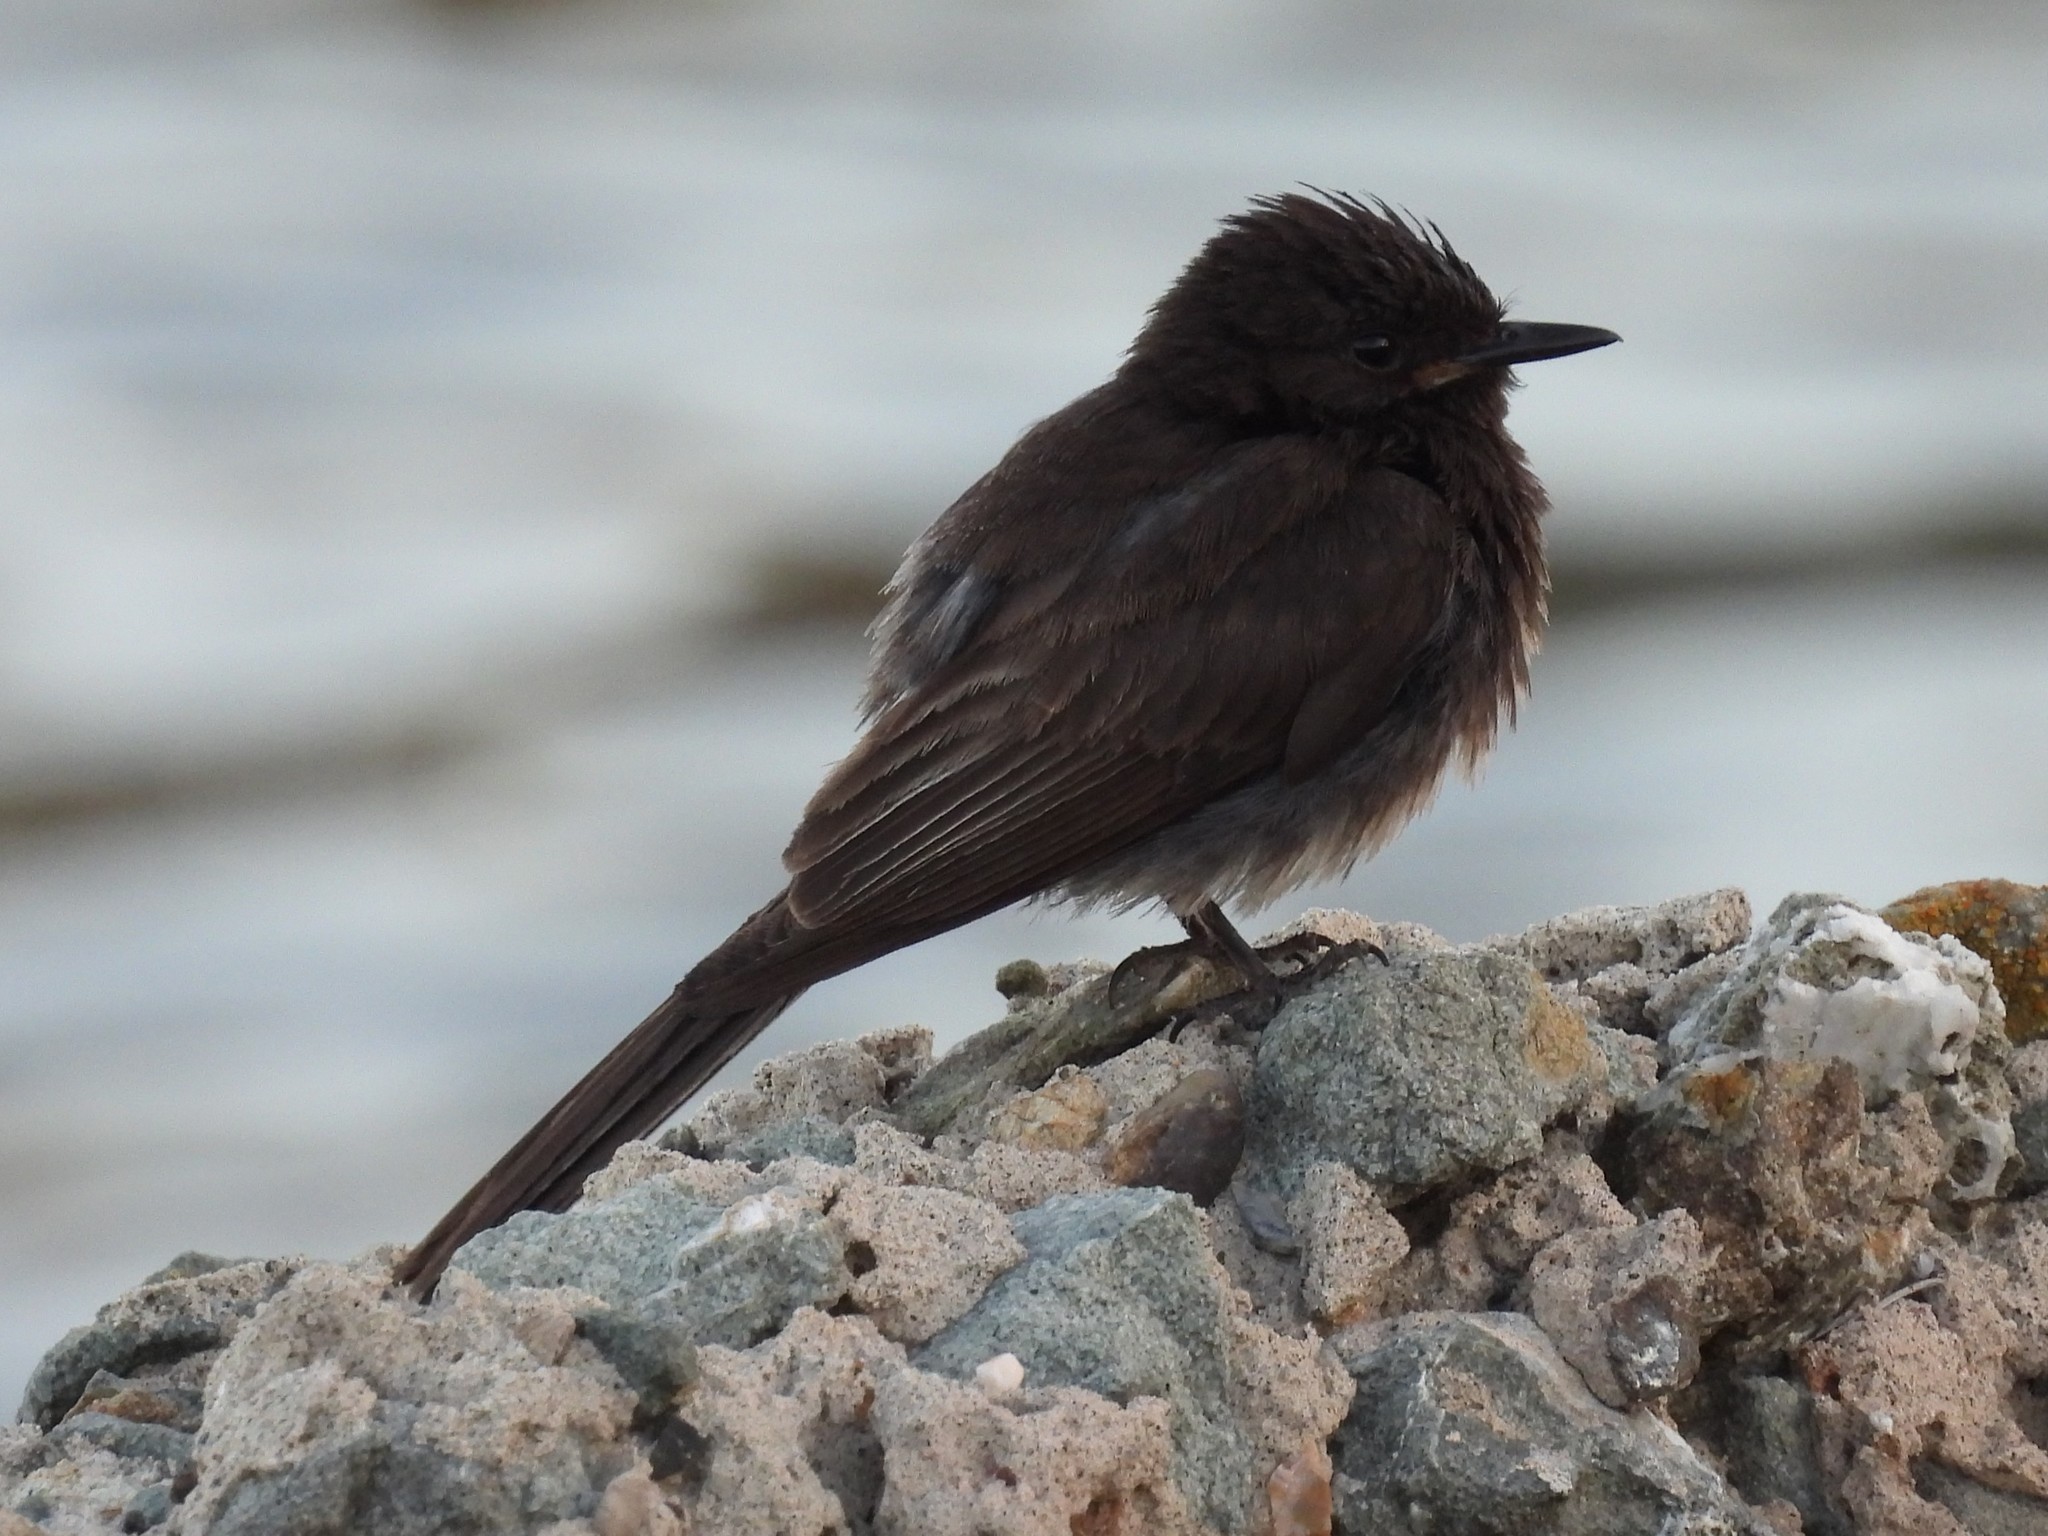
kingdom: Animalia
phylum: Chordata
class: Aves
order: Passeriformes
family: Tyrannidae
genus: Sayornis
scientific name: Sayornis nigricans
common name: Black phoebe
